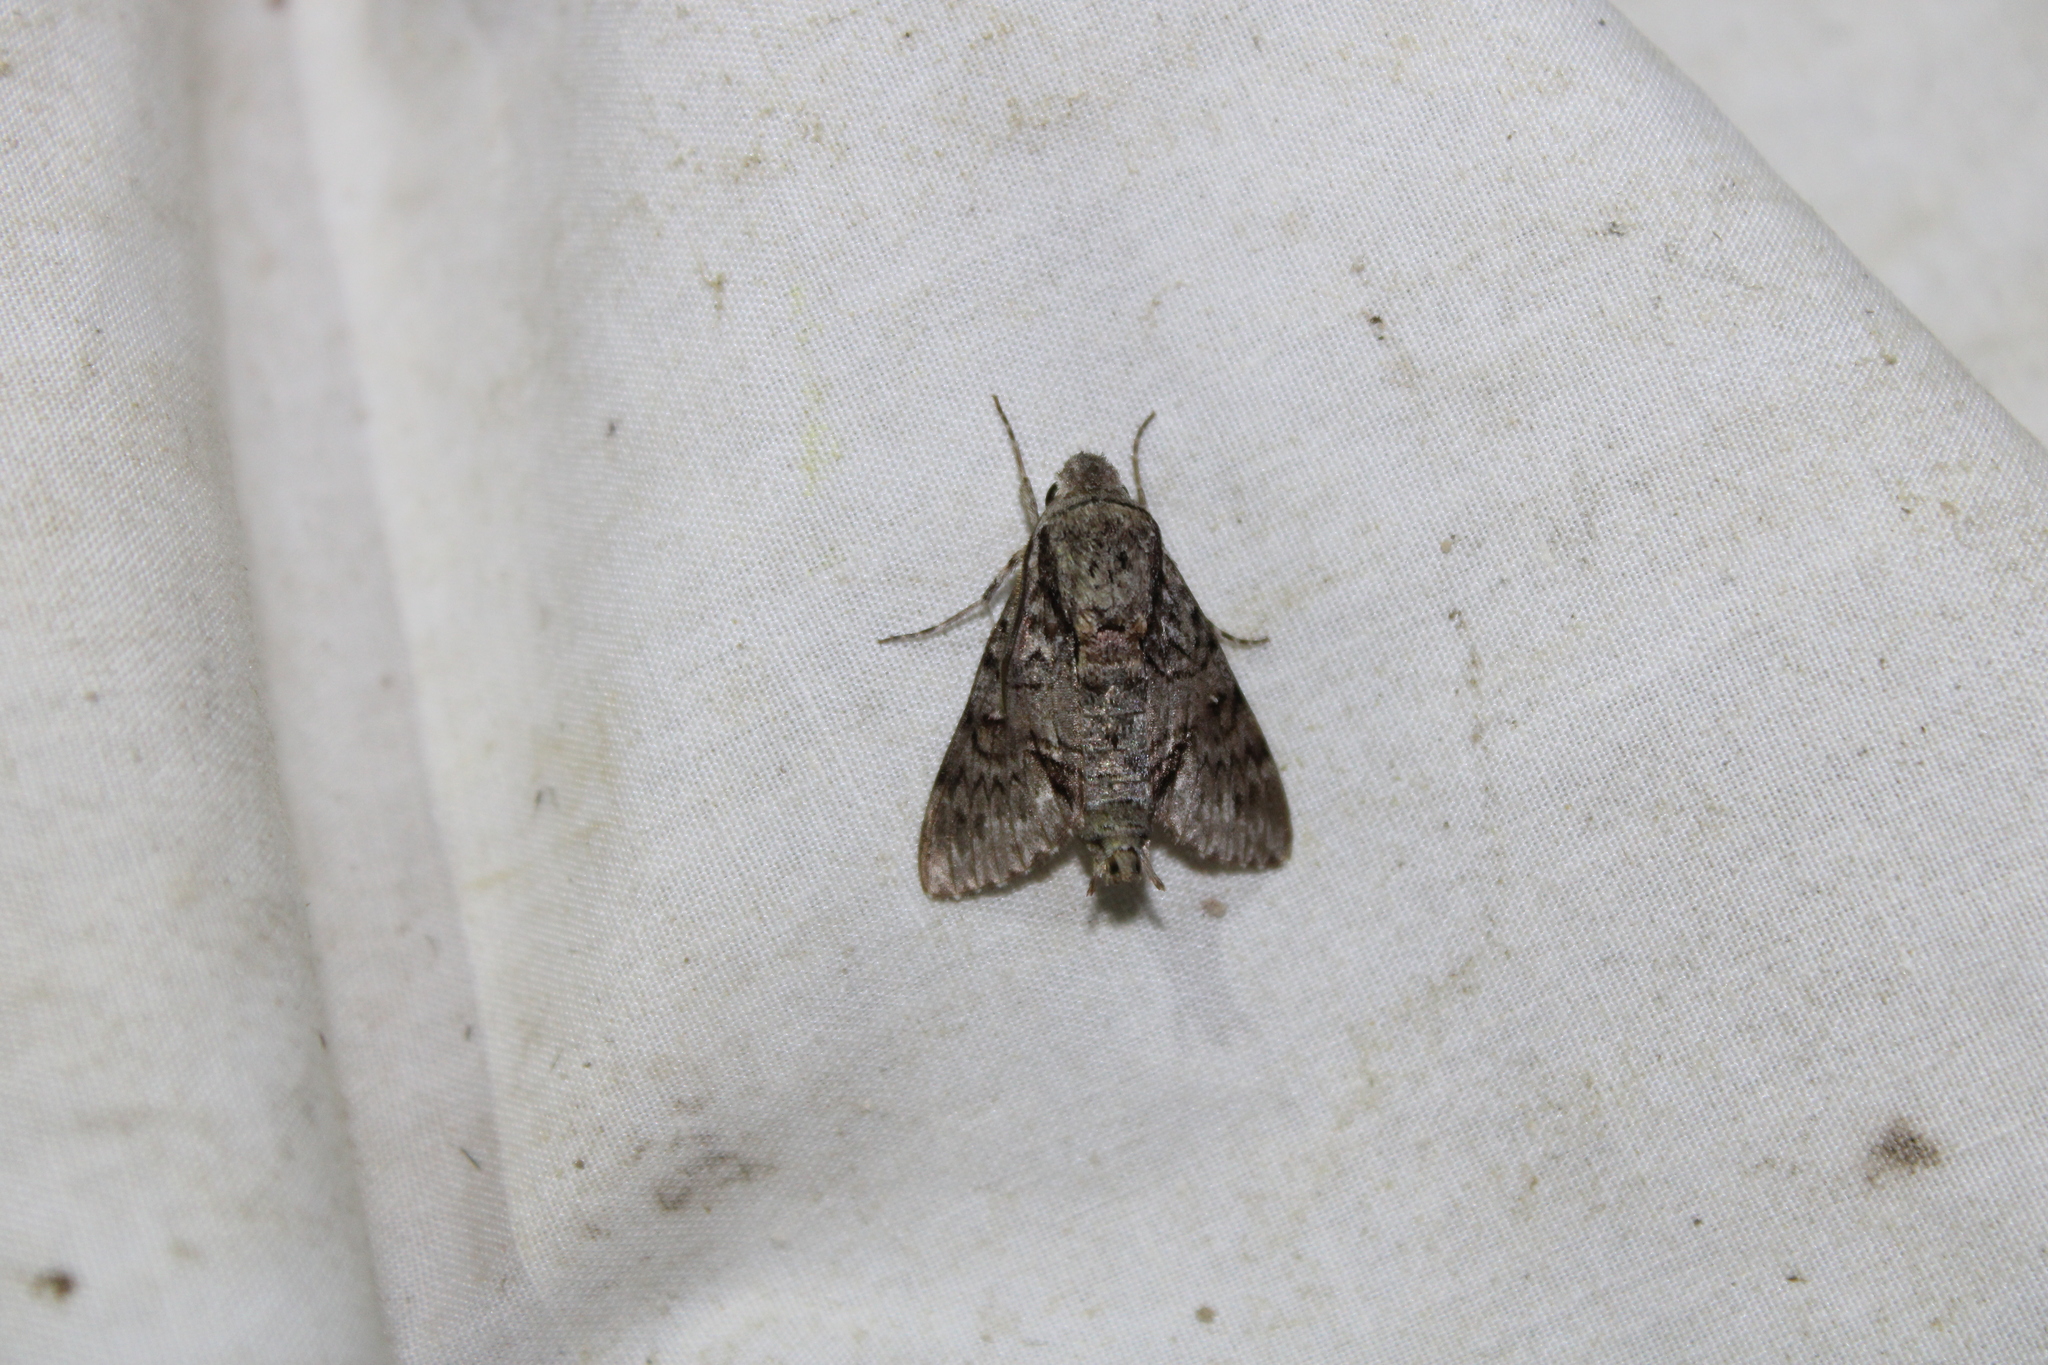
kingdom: Animalia
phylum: Arthropoda
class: Insecta
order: Lepidoptera
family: Sphingidae
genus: Cautethia
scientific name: Cautethia grotei
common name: Grote's sphinx
